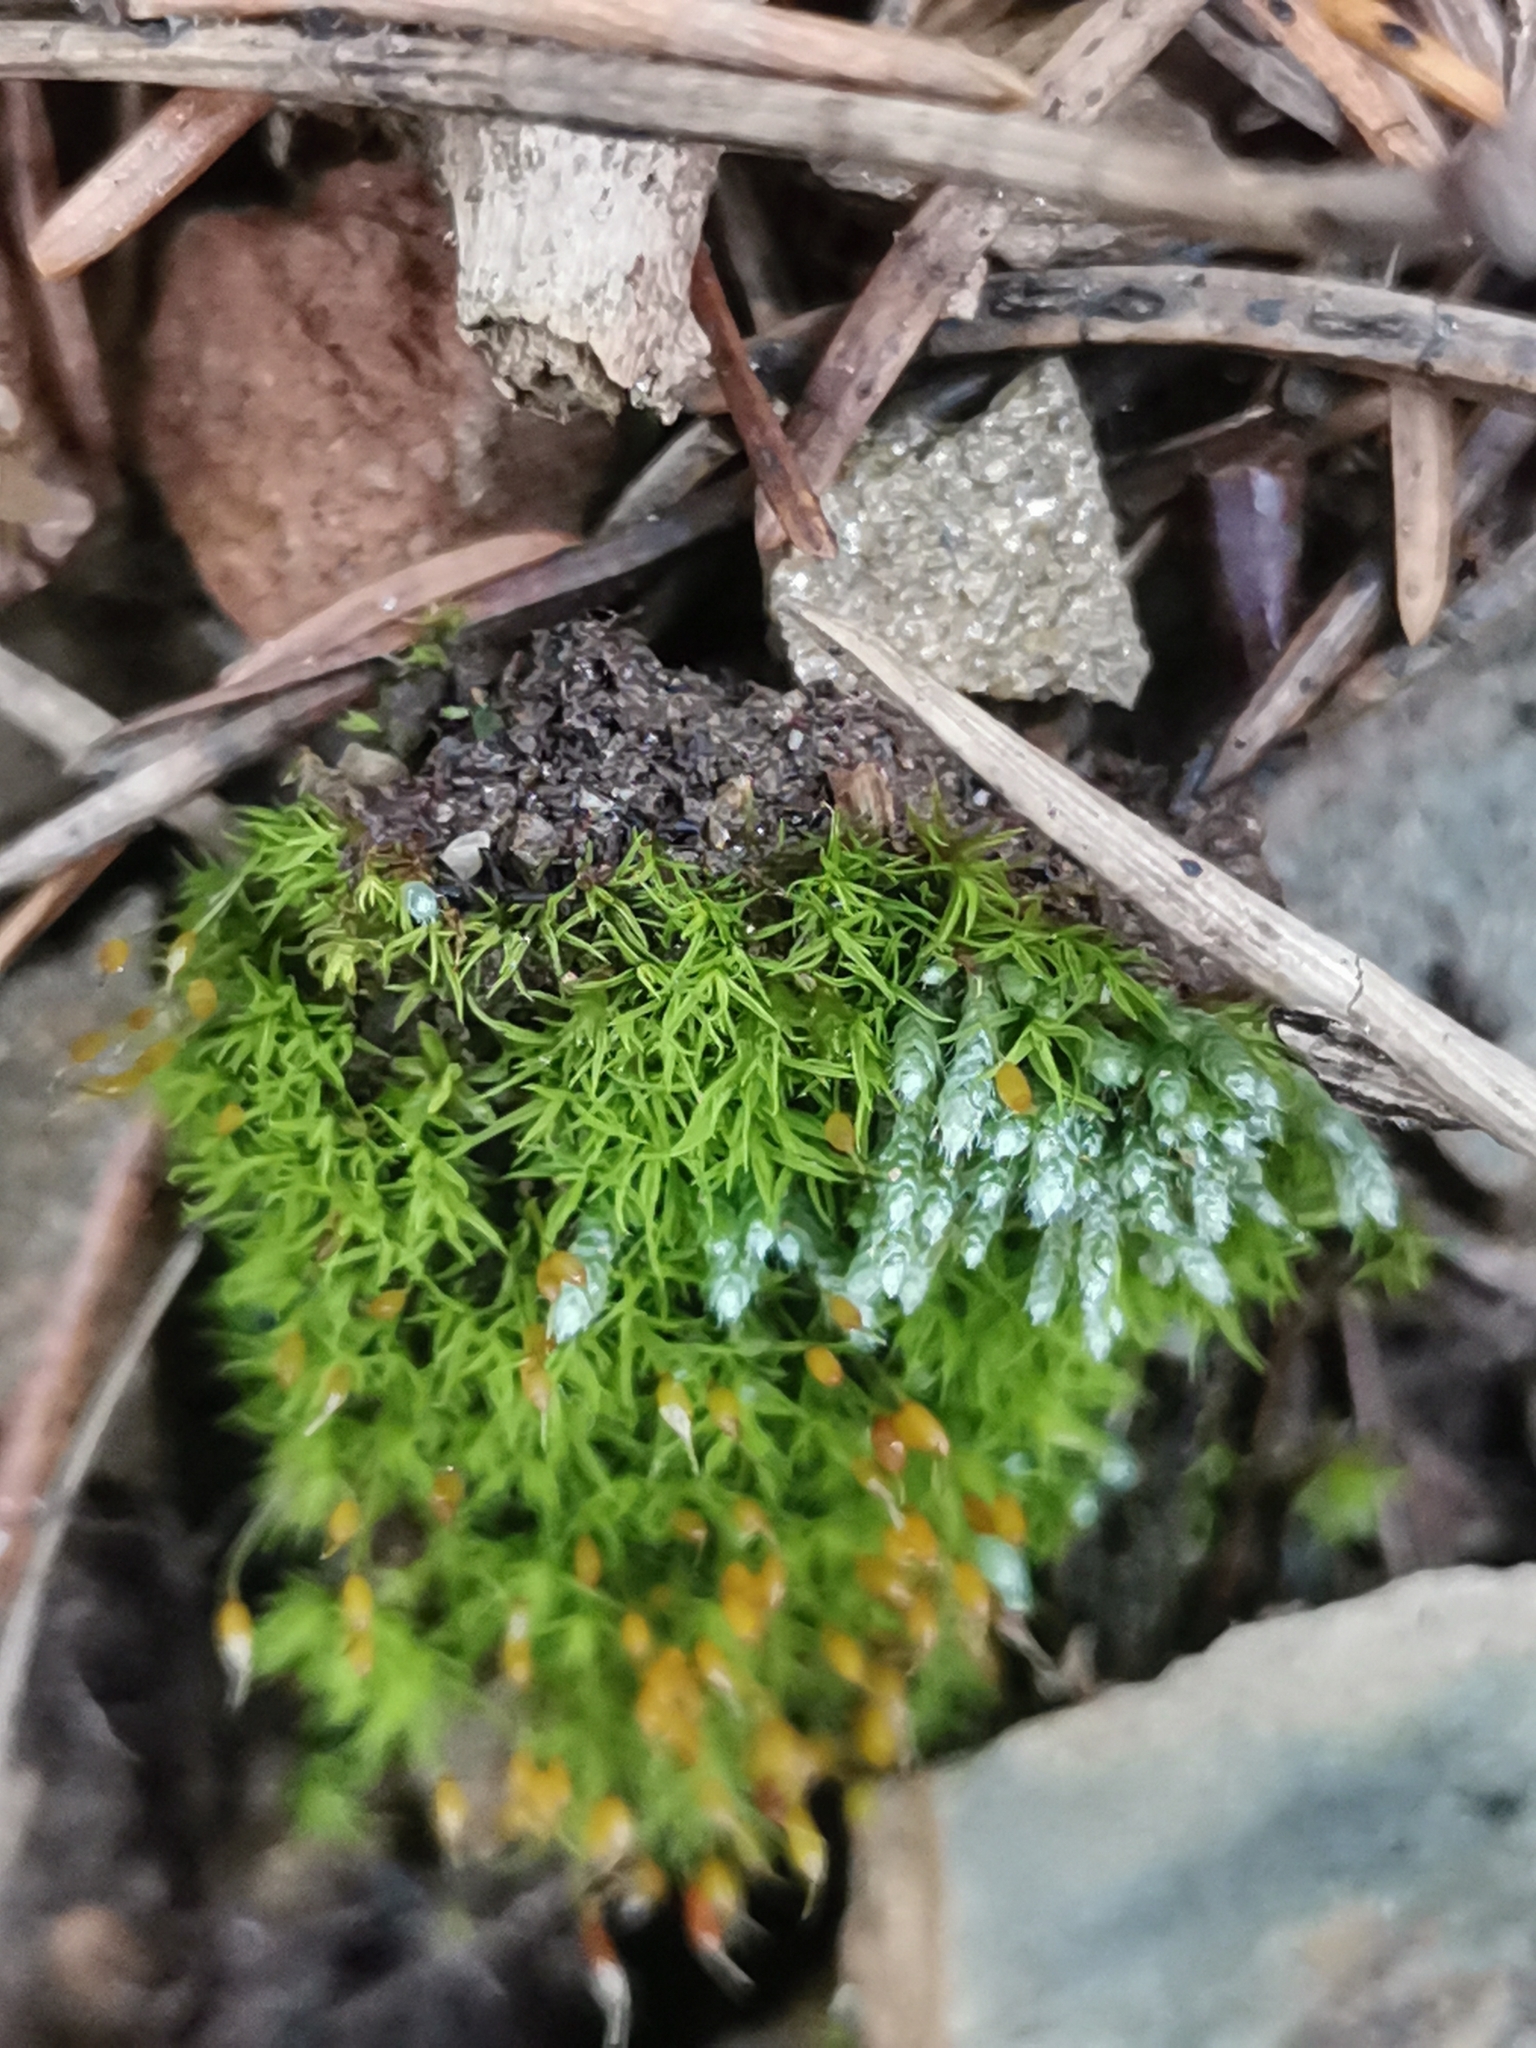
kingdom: Plantae
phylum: Bryophyta
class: Bryopsida
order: Bryales
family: Bryaceae
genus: Bryum
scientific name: Bryum argenteum
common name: Silver-moss
